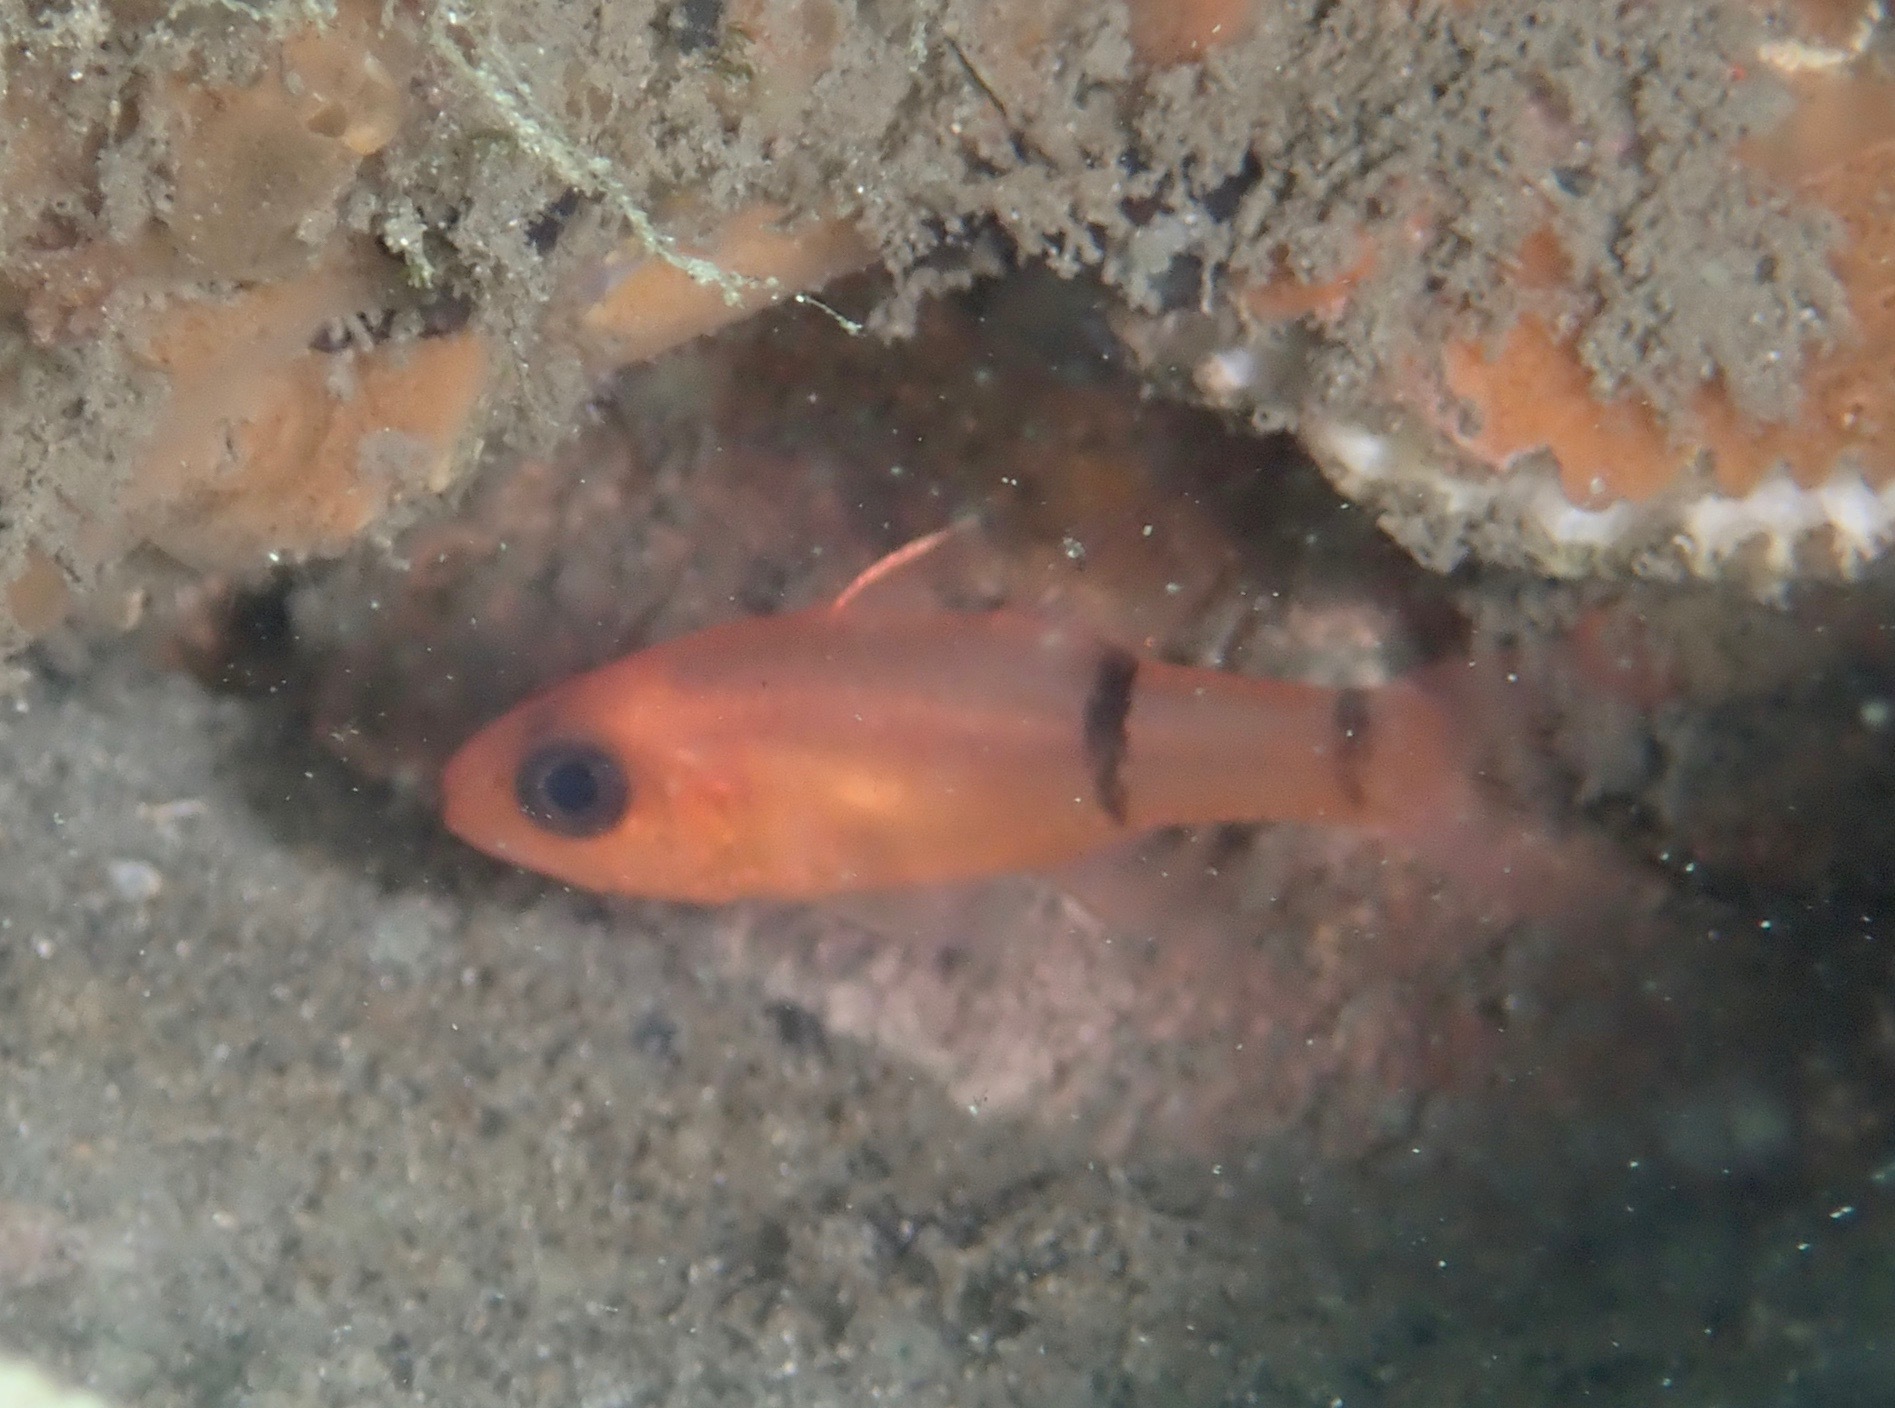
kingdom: Animalia
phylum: Chordata
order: Perciformes
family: Apogonidae
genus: Apogon
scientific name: Apogon binotatus
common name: Barred cardinalfish
